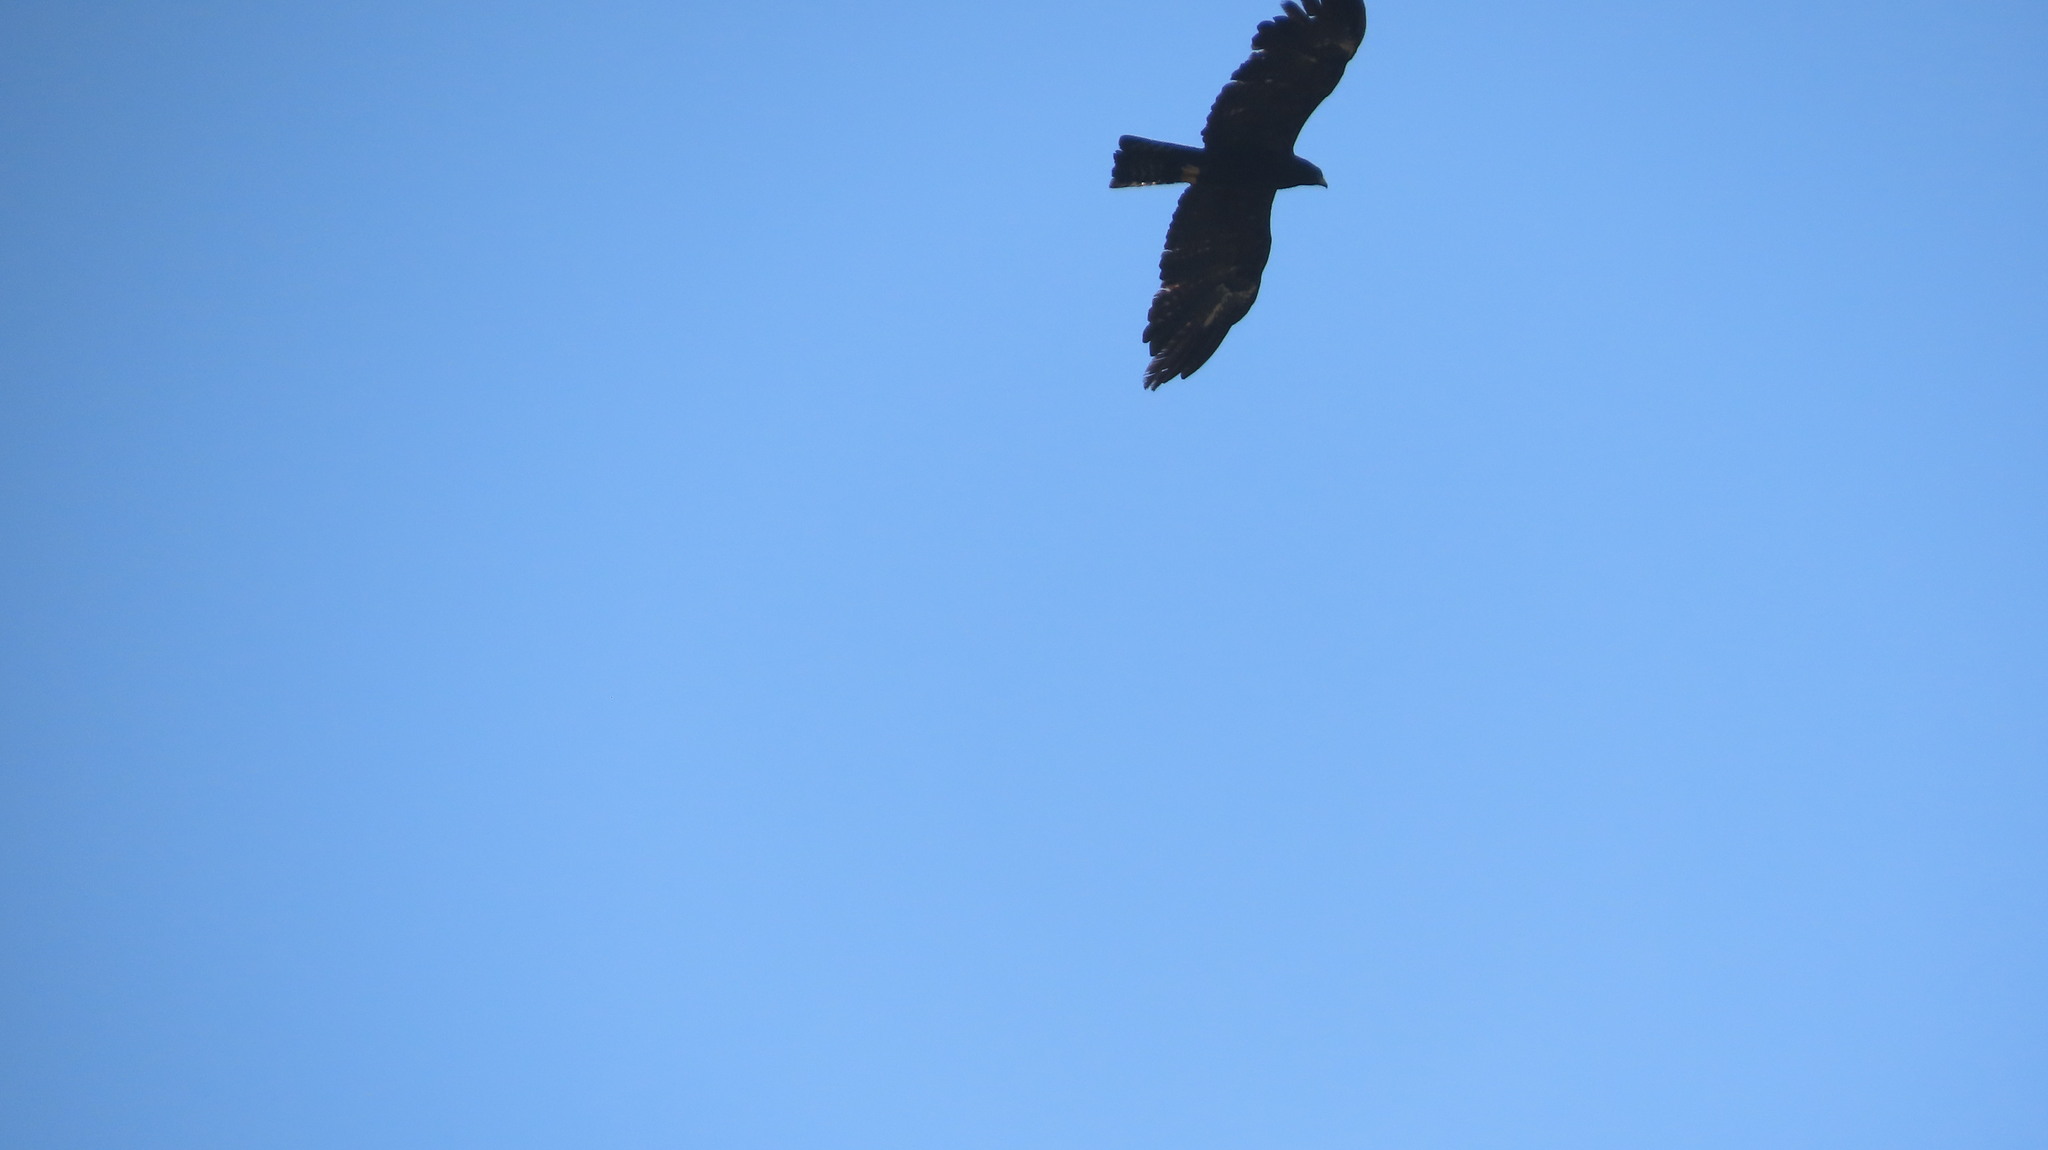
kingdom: Animalia
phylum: Chordata
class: Aves
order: Accipitriformes
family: Accipitridae
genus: Ictinaetus
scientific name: Ictinaetus malayensis
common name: Black eagle
